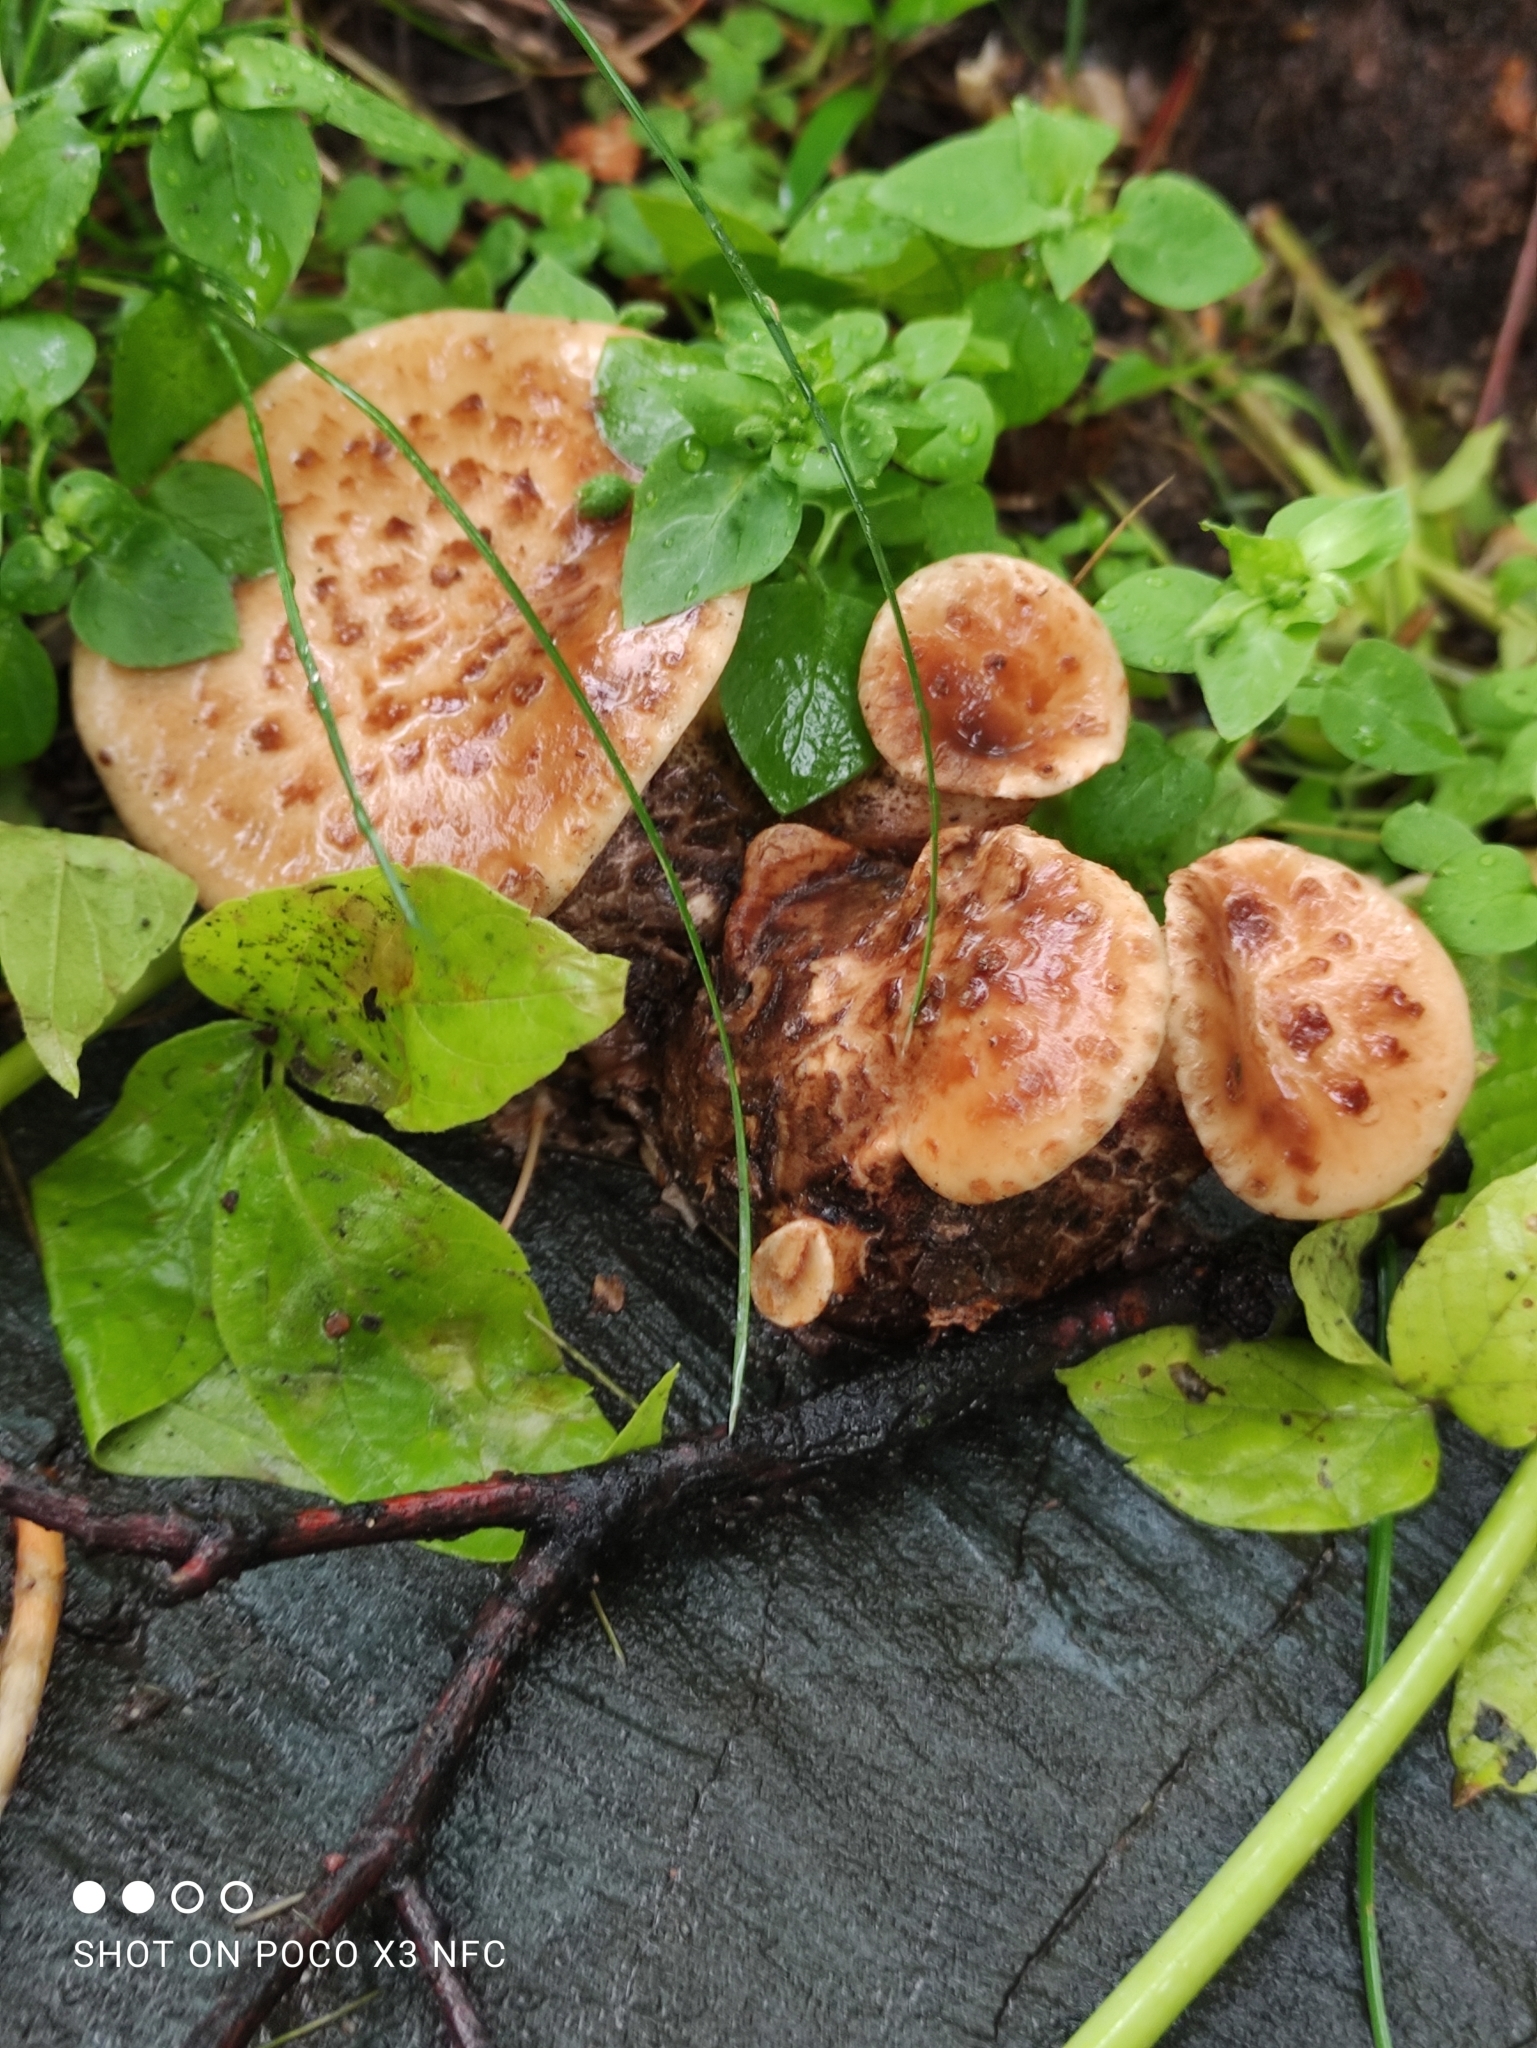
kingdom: Fungi
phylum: Basidiomycota
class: Agaricomycetes
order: Polyporales
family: Polyporaceae
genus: Cerioporus
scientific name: Cerioporus squamosus
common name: Dryad's saddle
